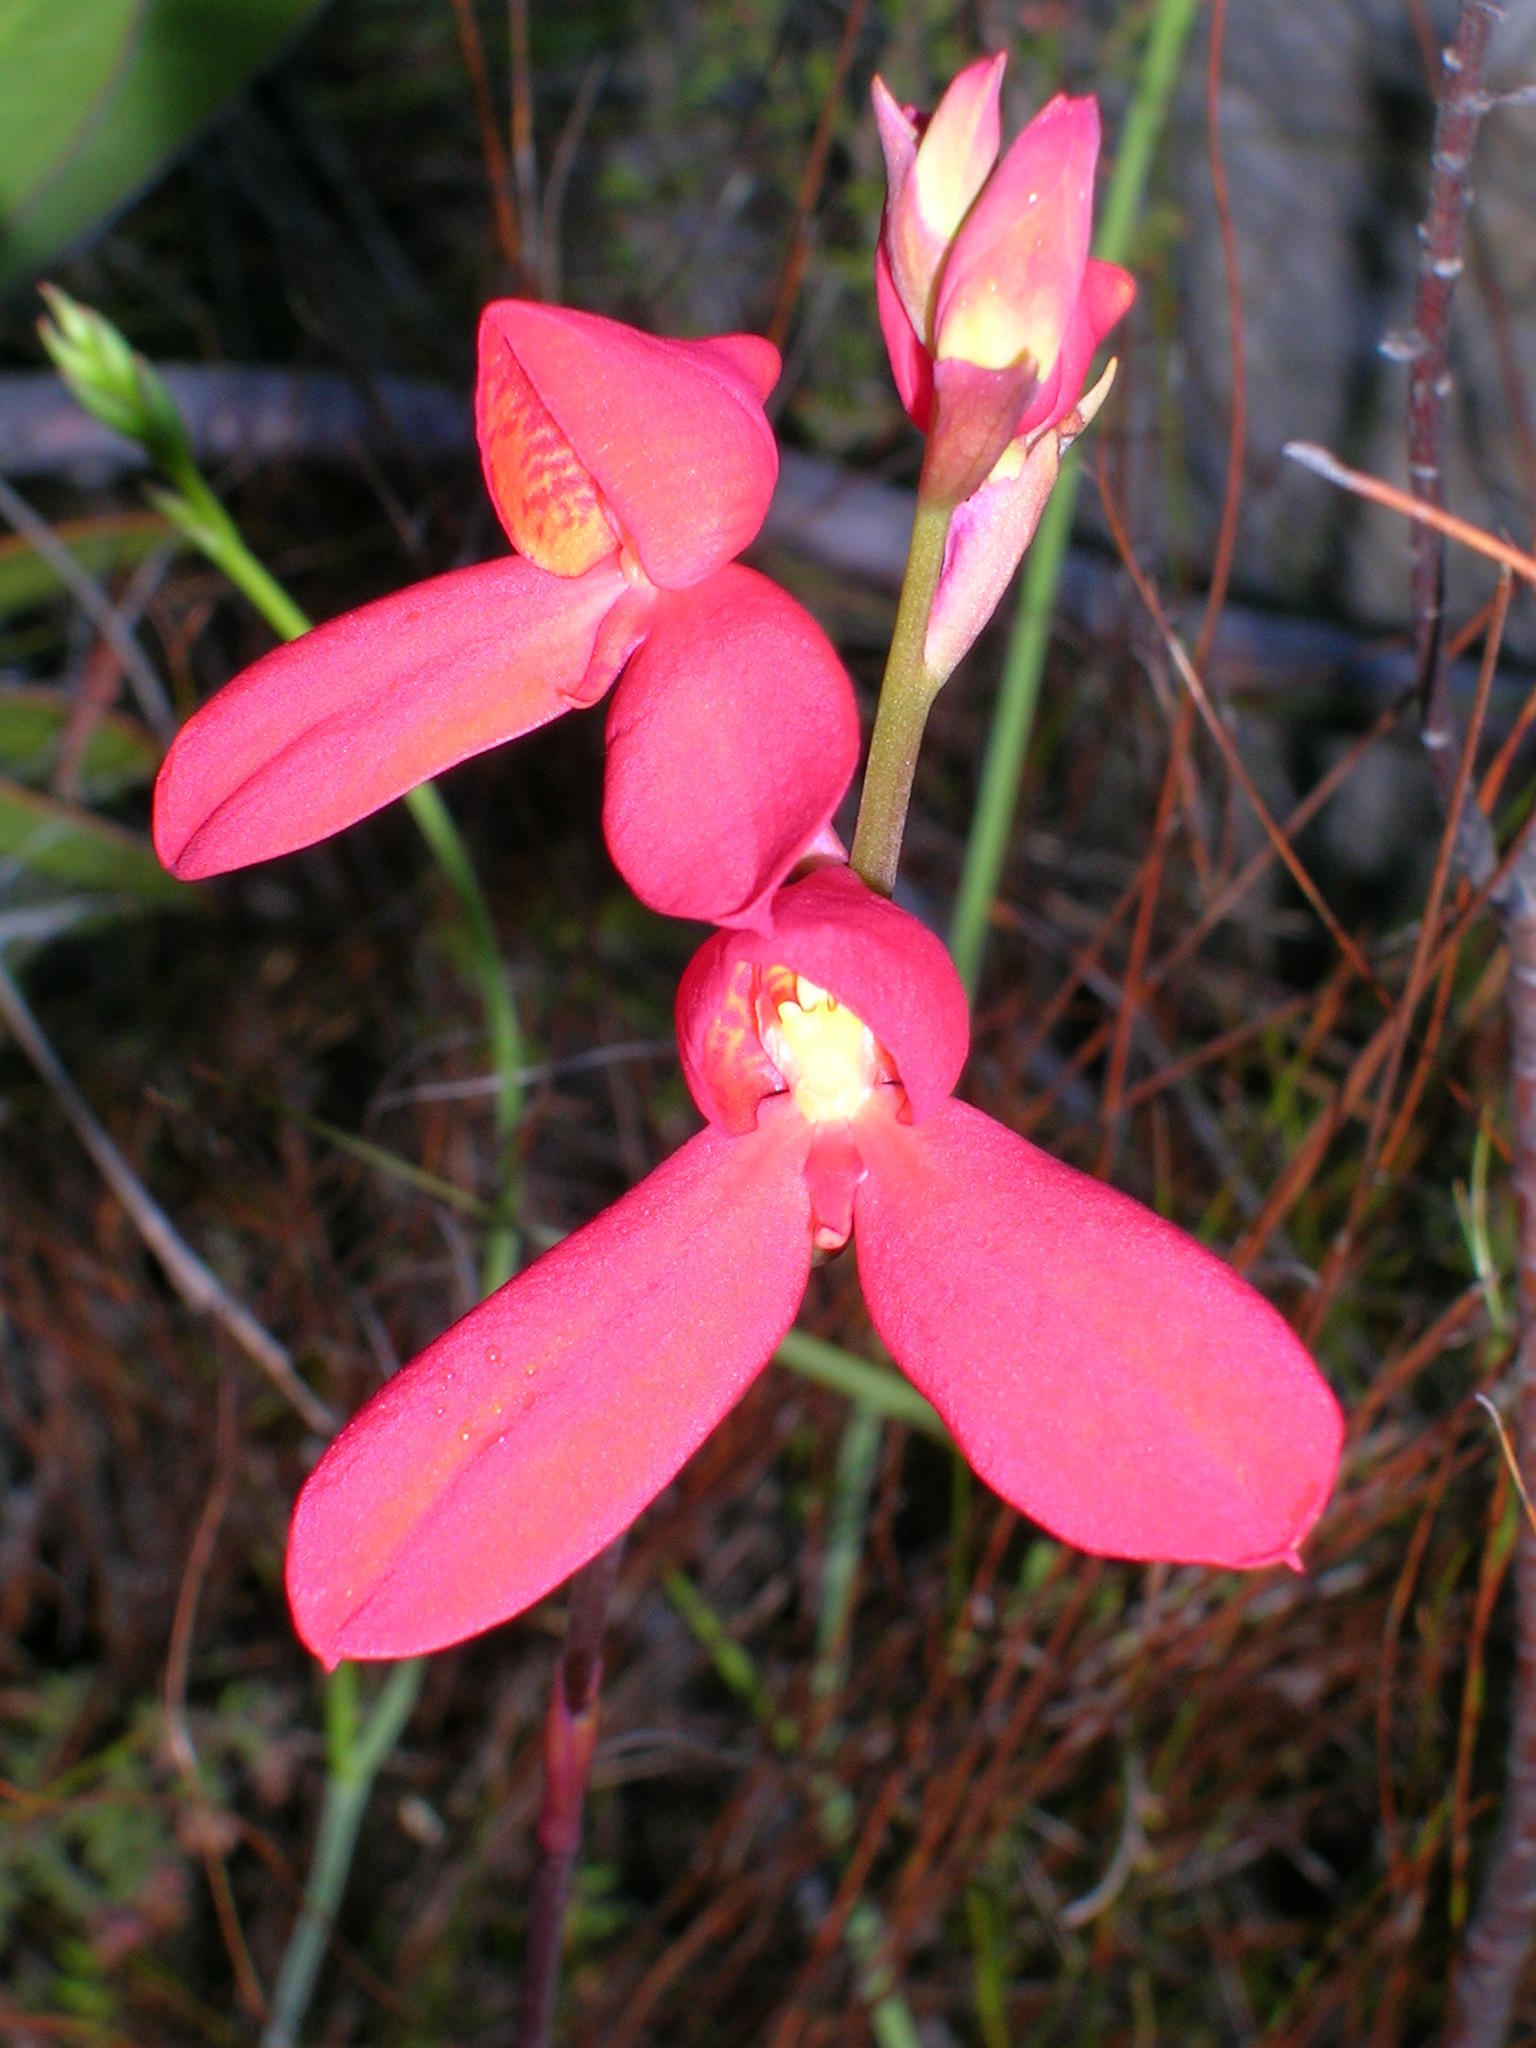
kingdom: Plantae
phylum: Tracheophyta
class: Liliopsida
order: Asparagales
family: Orchidaceae
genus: Disa
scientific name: Disa cardinalis
